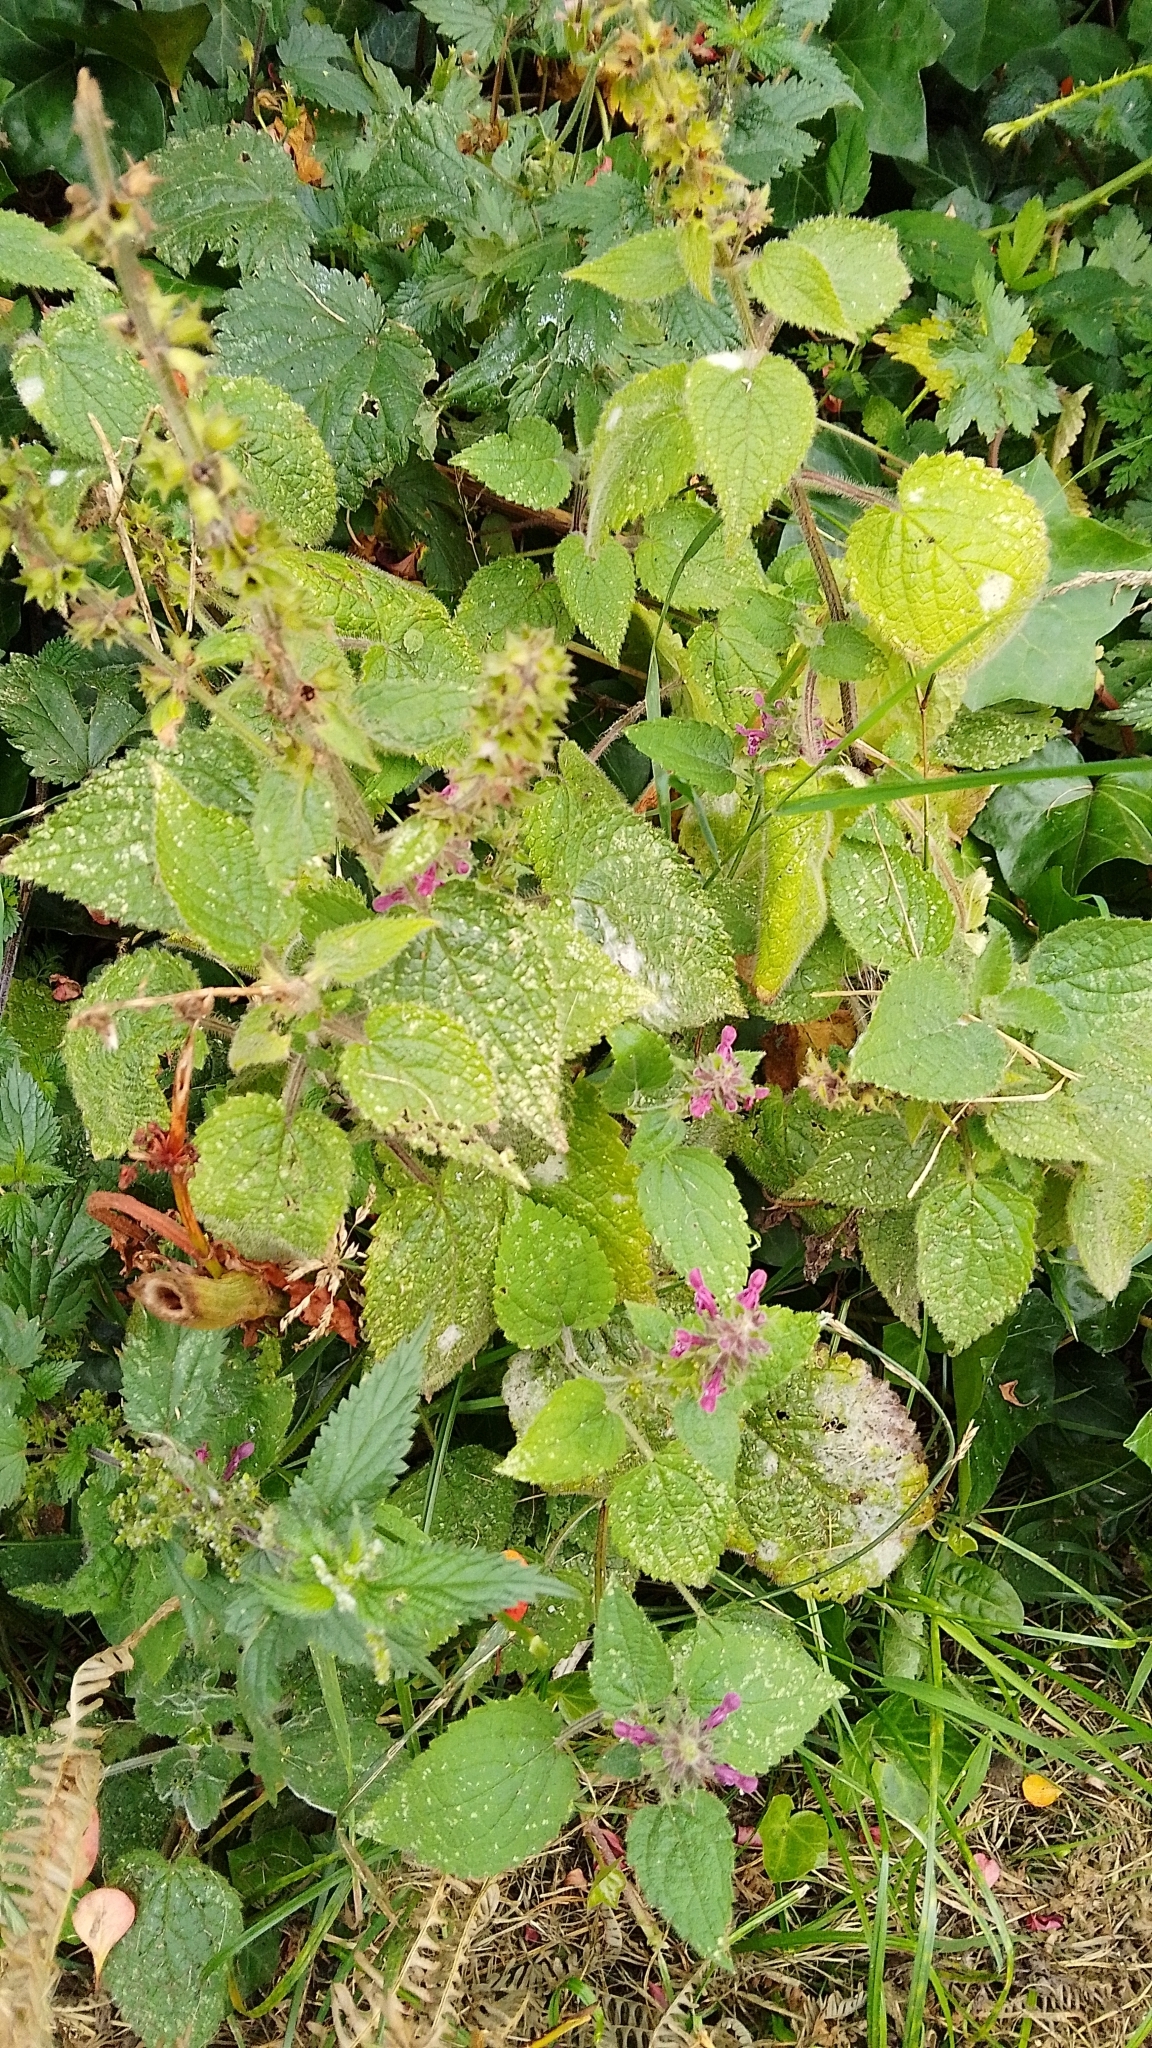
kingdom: Plantae
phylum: Tracheophyta
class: Magnoliopsida
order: Lamiales
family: Lamiaceae
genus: Stachys
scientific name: Stachys sylvatica
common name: Hedge woundwort
